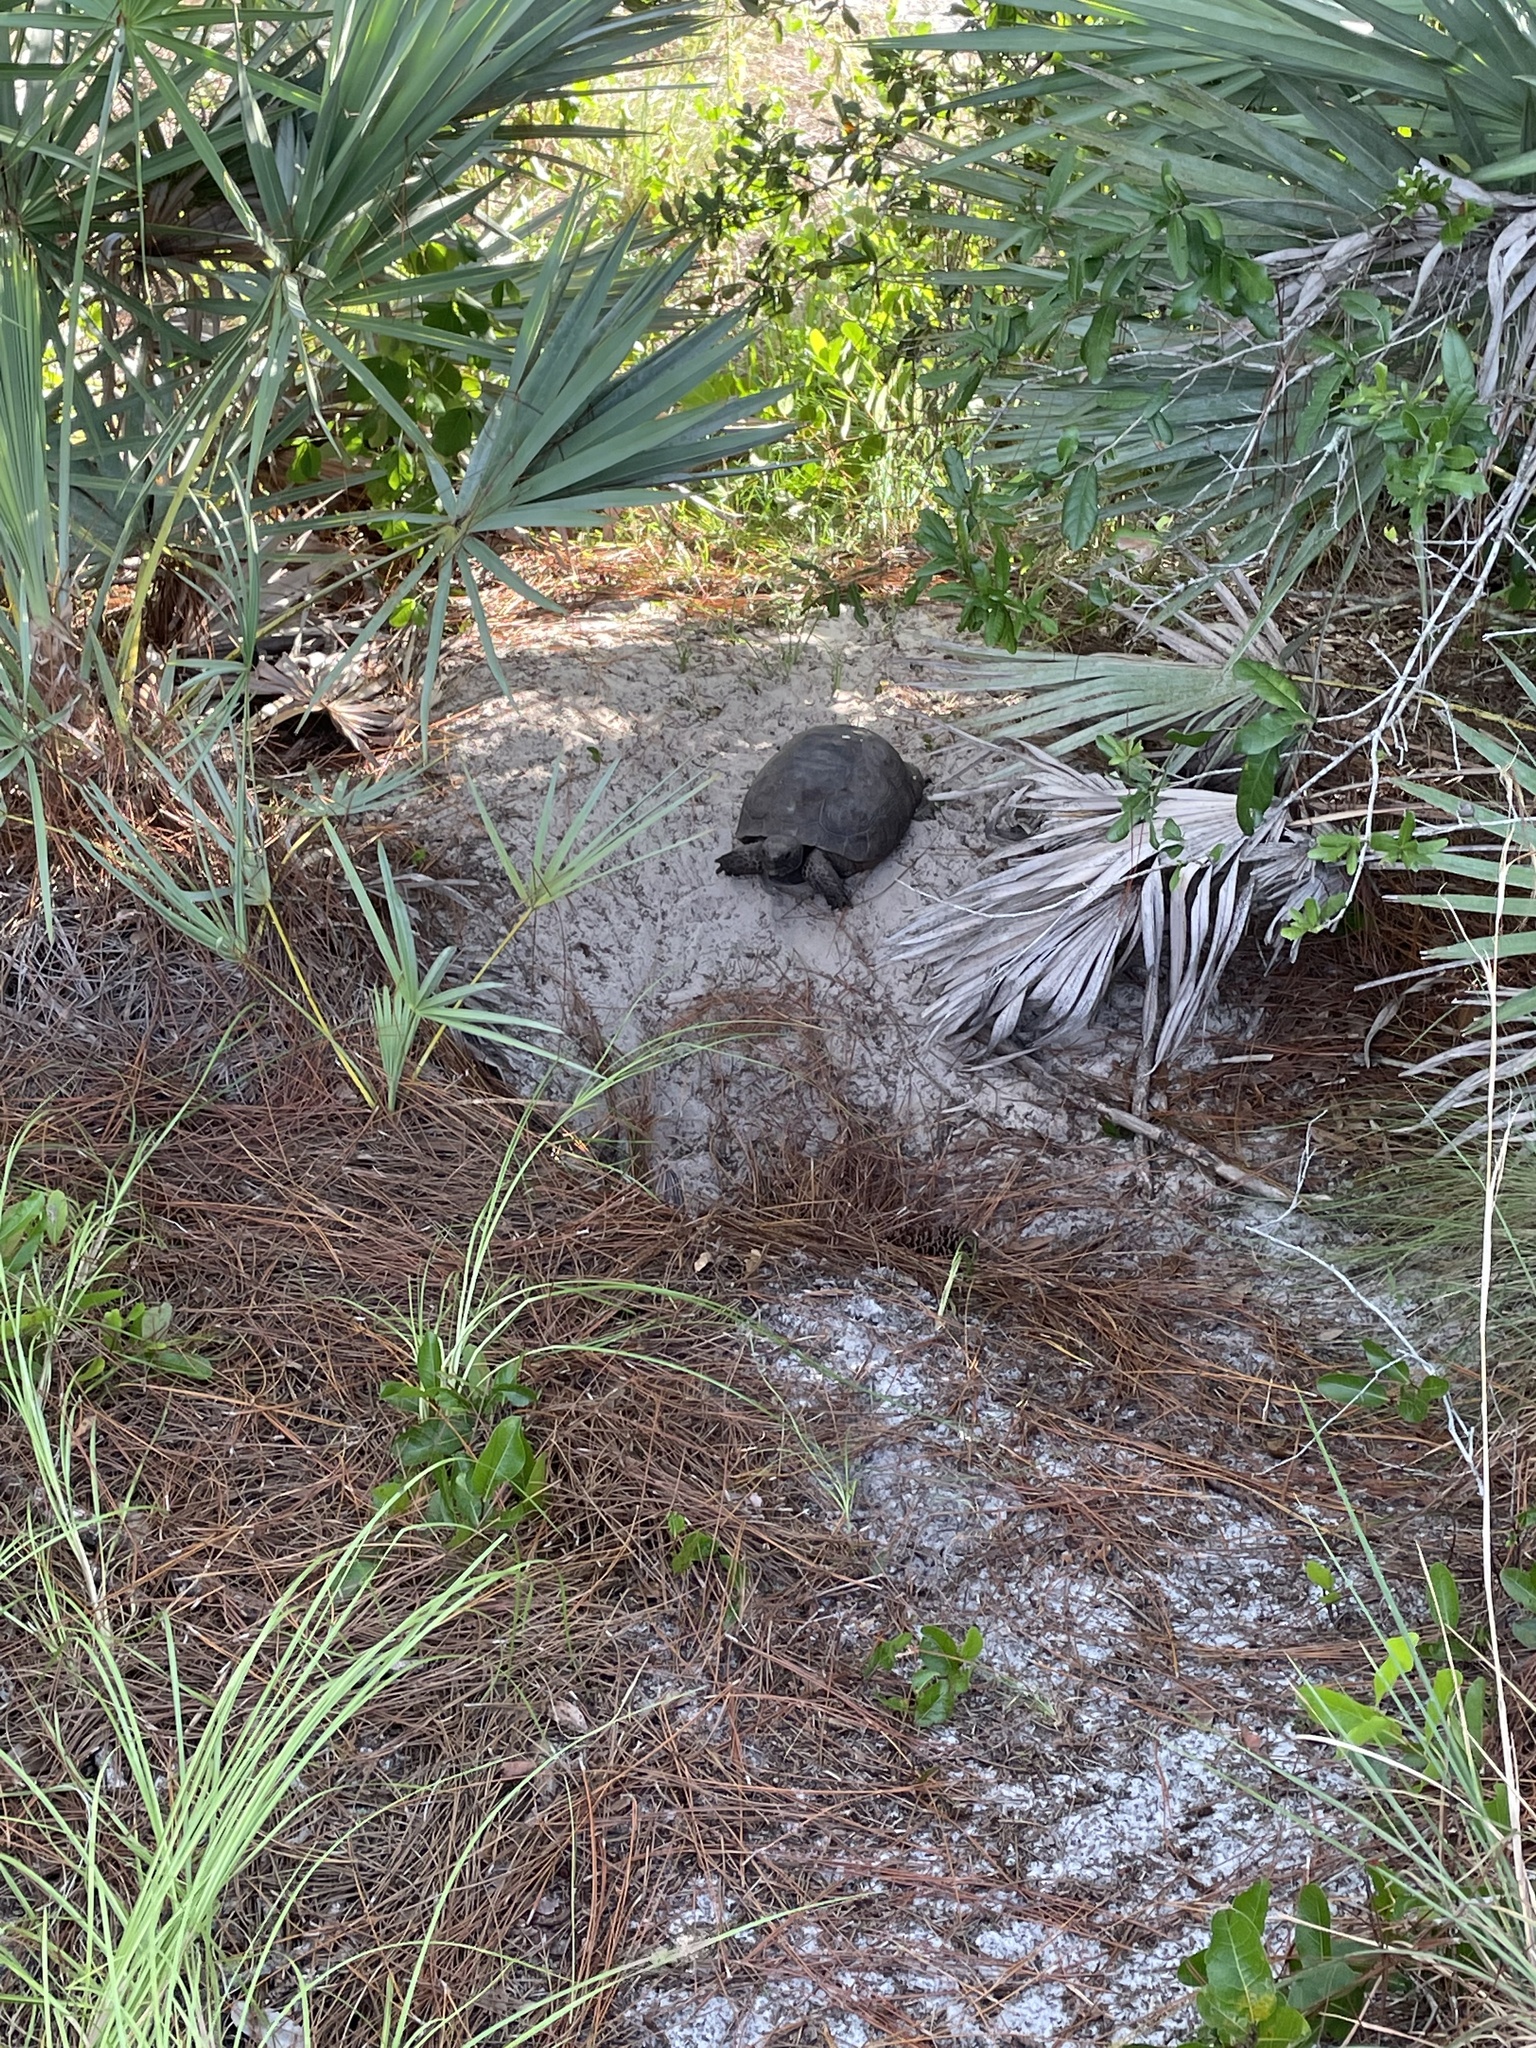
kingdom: Animalia
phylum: Chordata
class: Testudines
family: Testudinidae
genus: Gopherus
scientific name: Gopherus polyphemus
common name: Florida gopher tortoise
